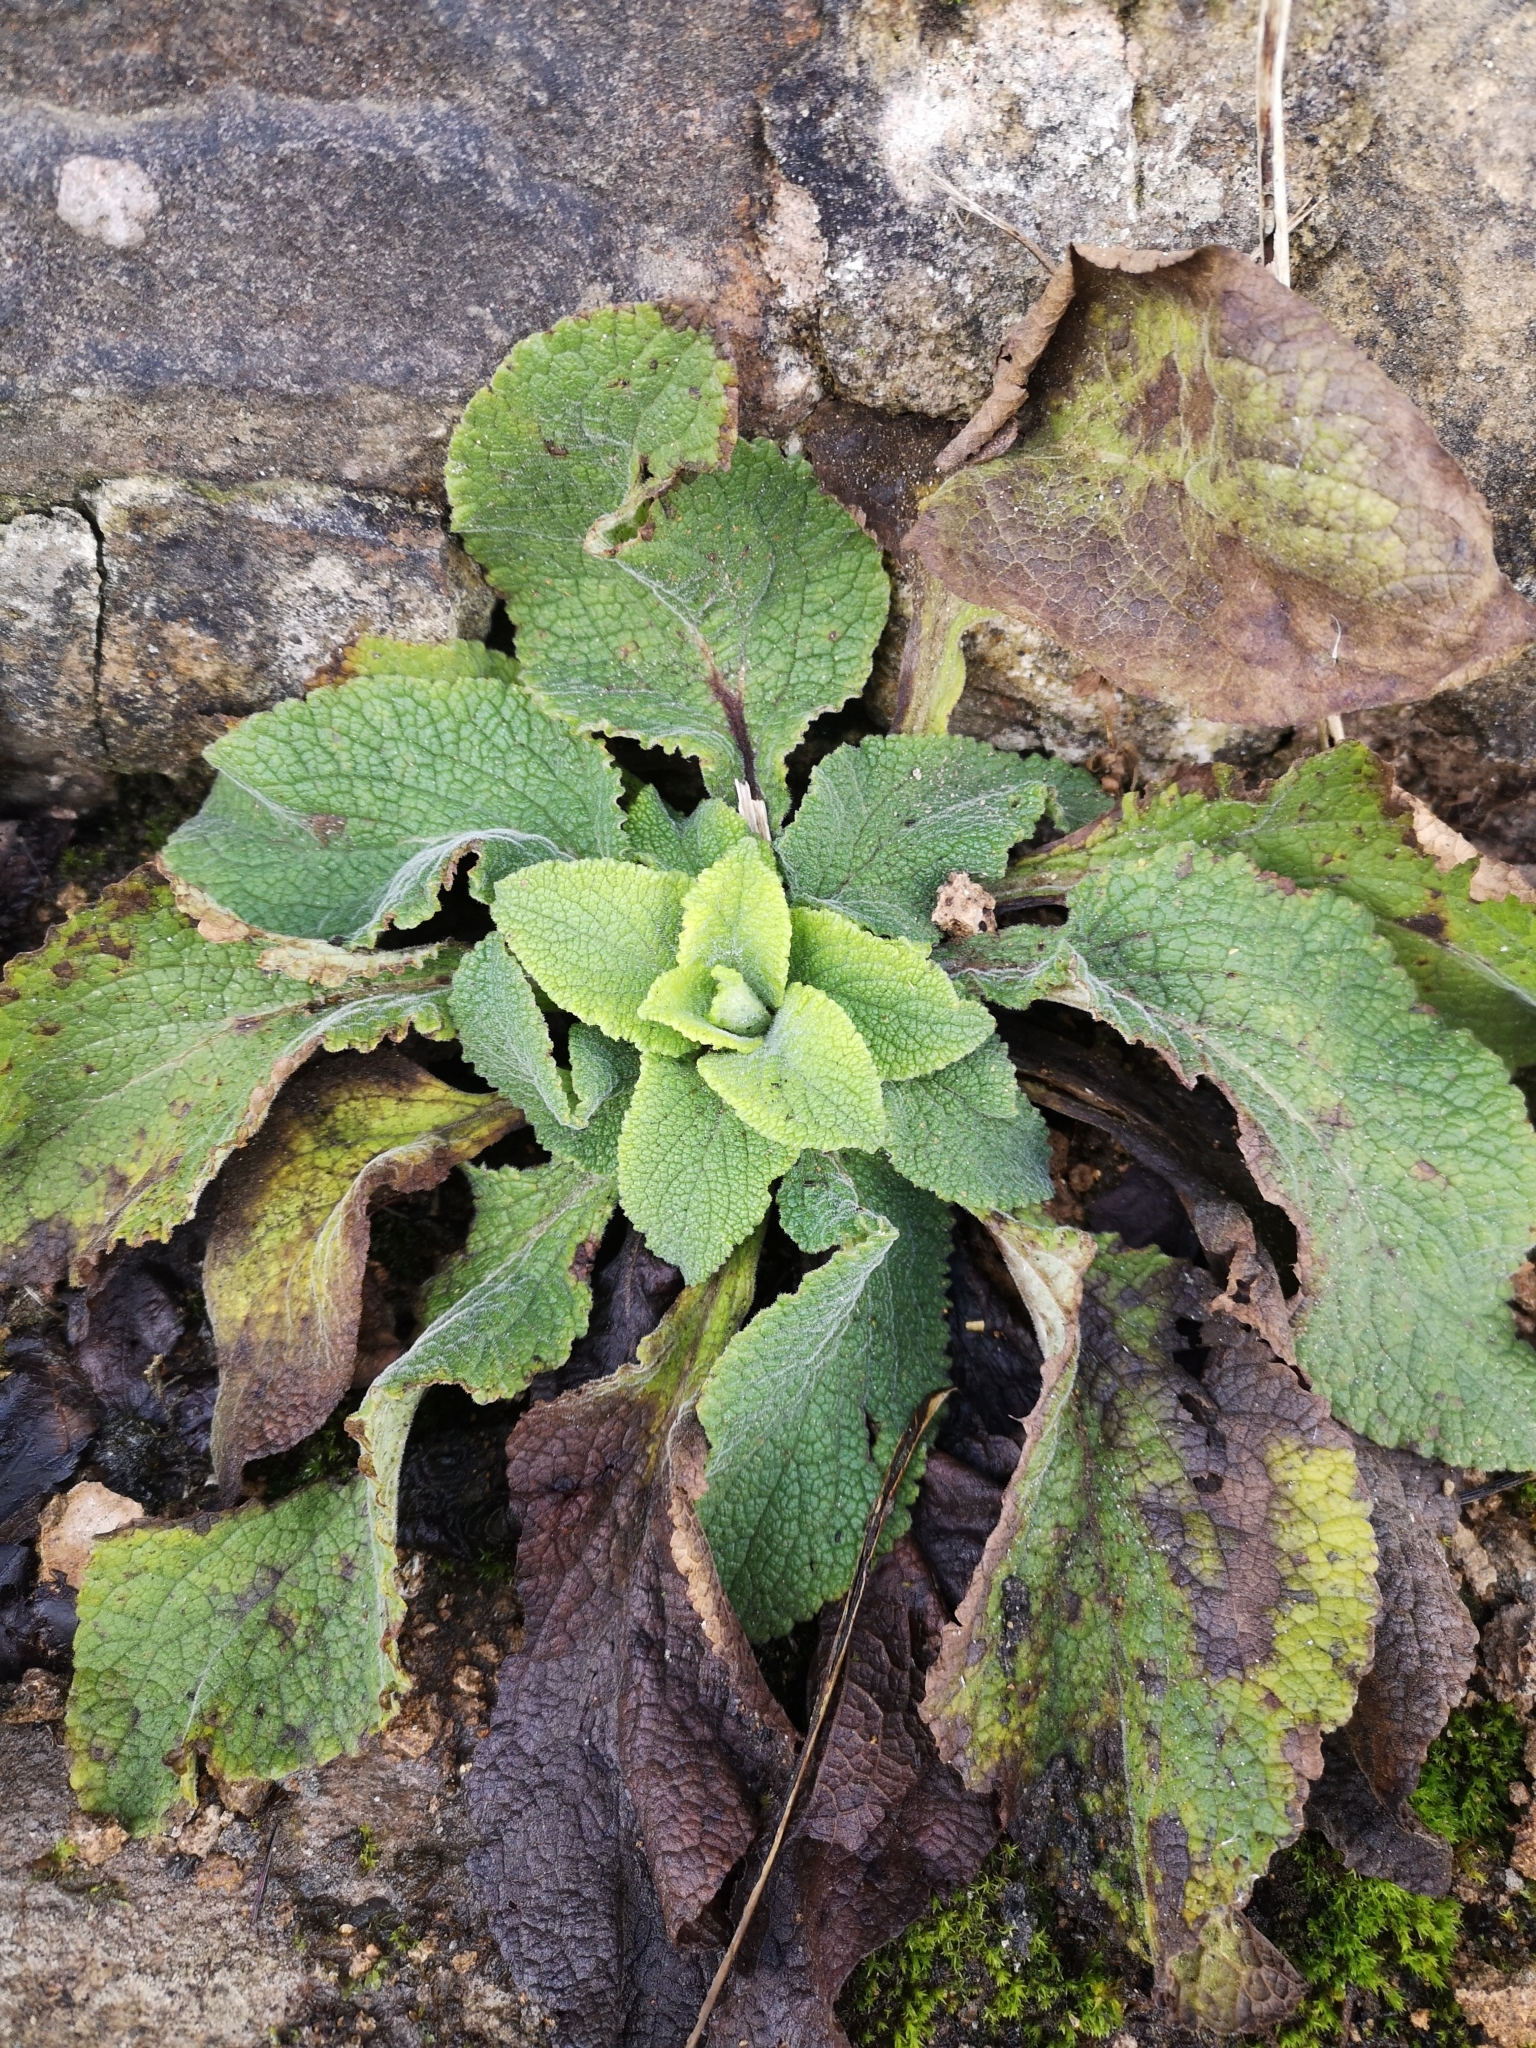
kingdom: Plantae
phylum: Tracheophyta
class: Magnoliopsida
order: Lamiales
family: Plantaginaceae
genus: Digitalis
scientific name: Digitalis purpurea
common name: Foxglove
